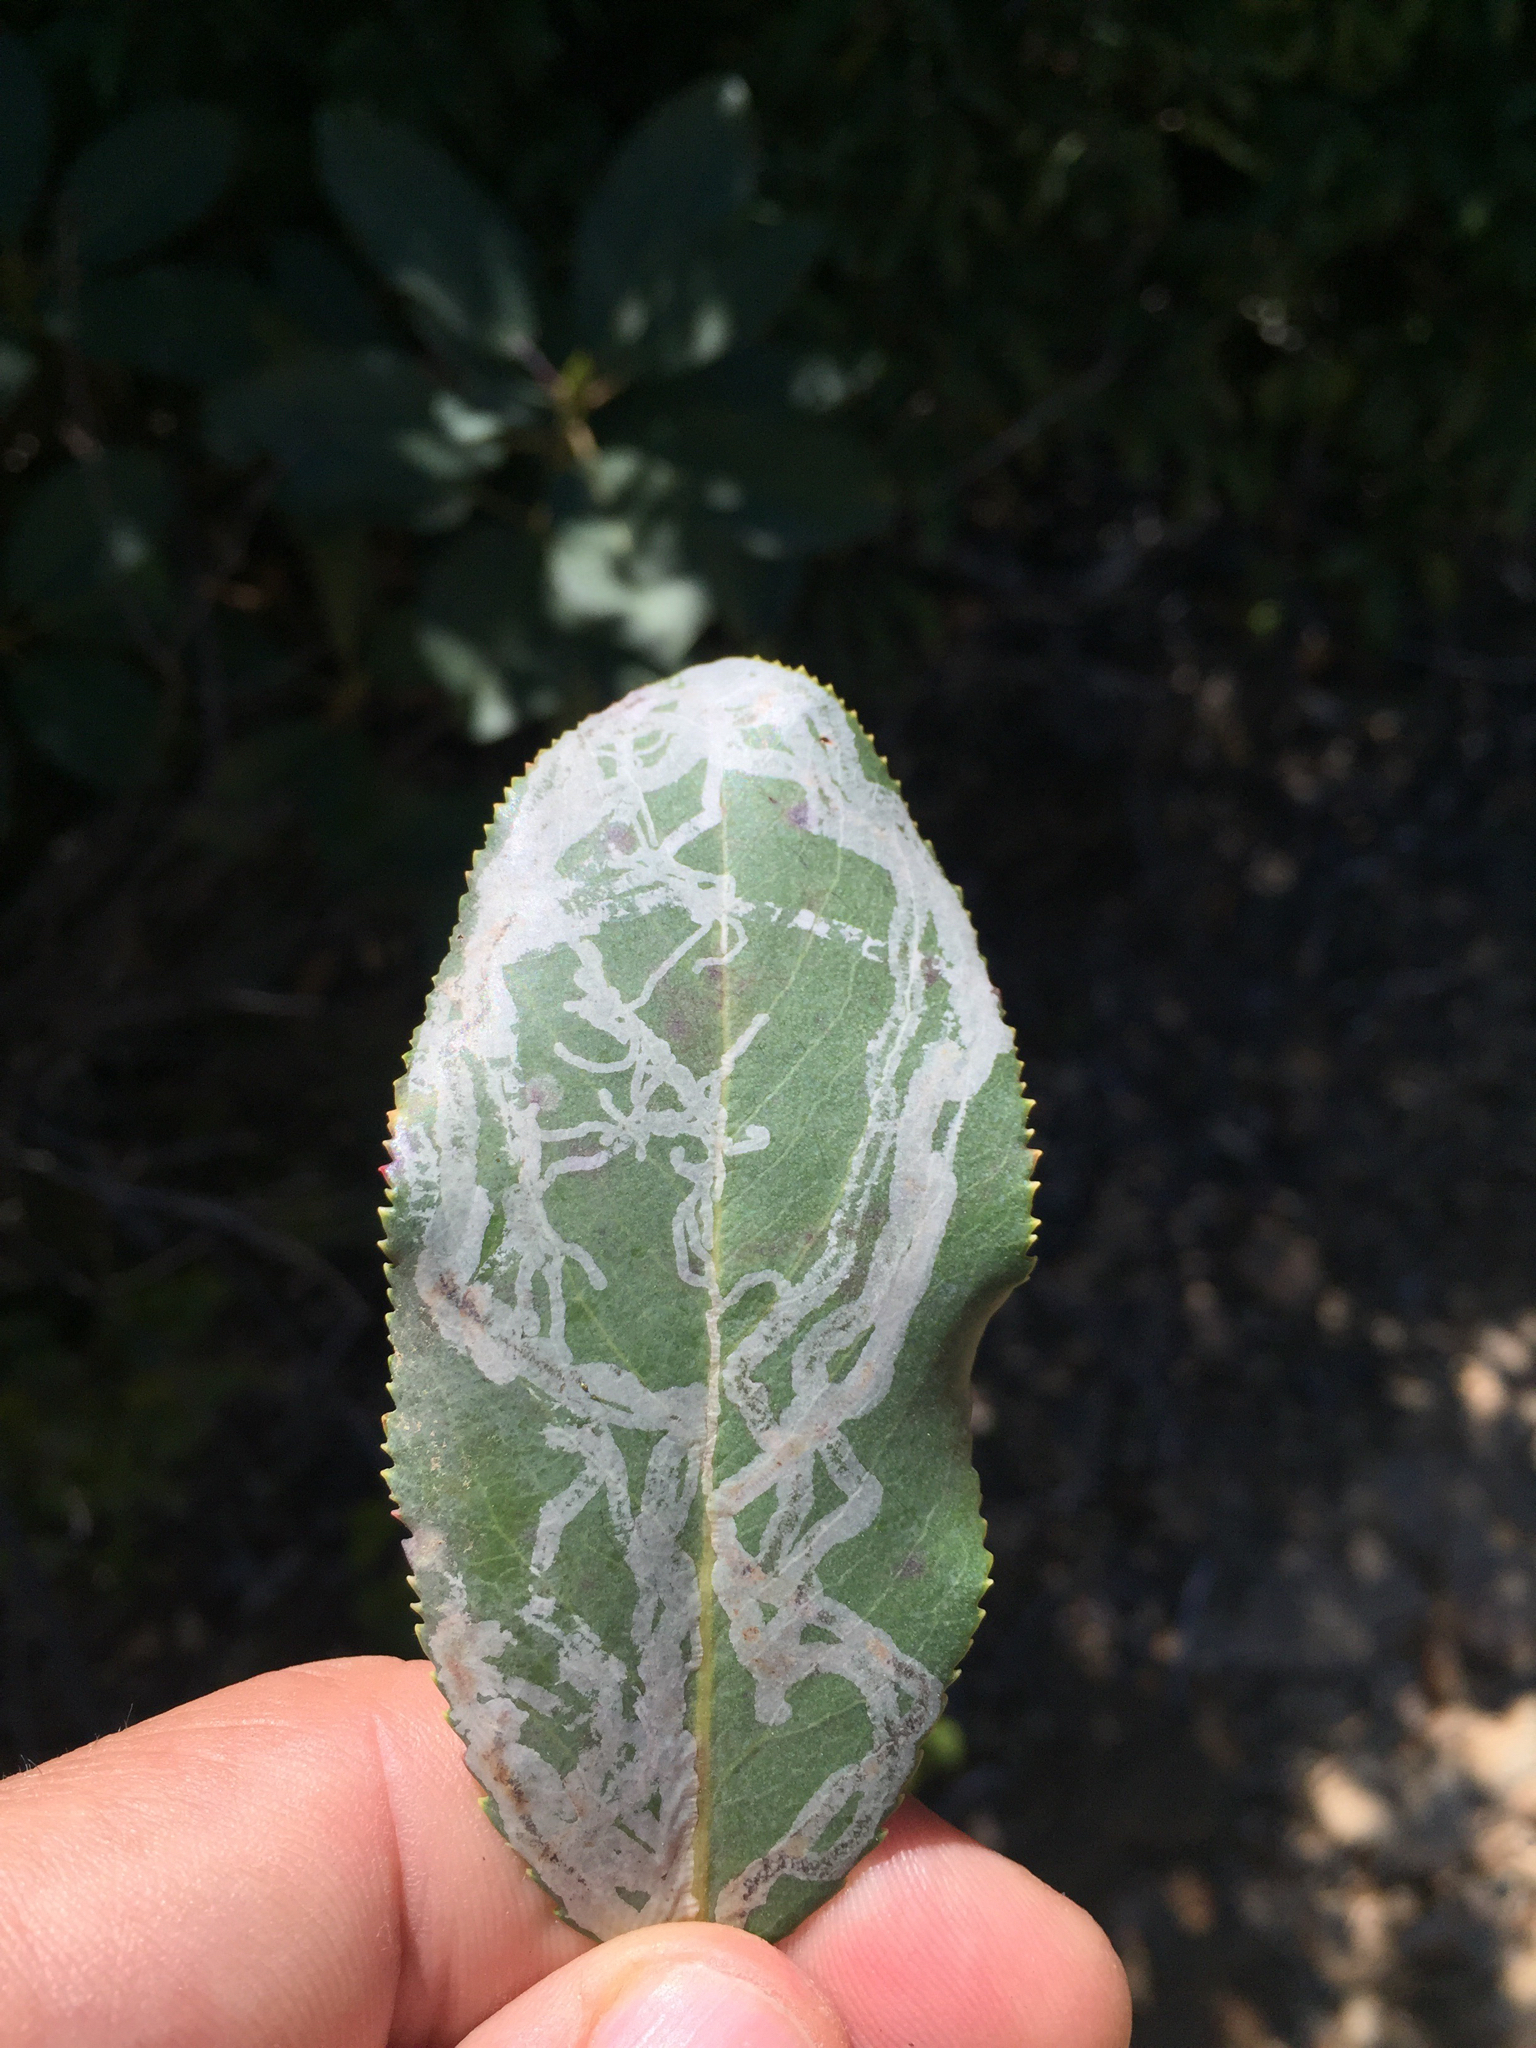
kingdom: Animalia
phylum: Arthropoda
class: Insecta
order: Lepidoptera
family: Gracillariidae
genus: Marmara
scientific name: Marmara arbutiella
